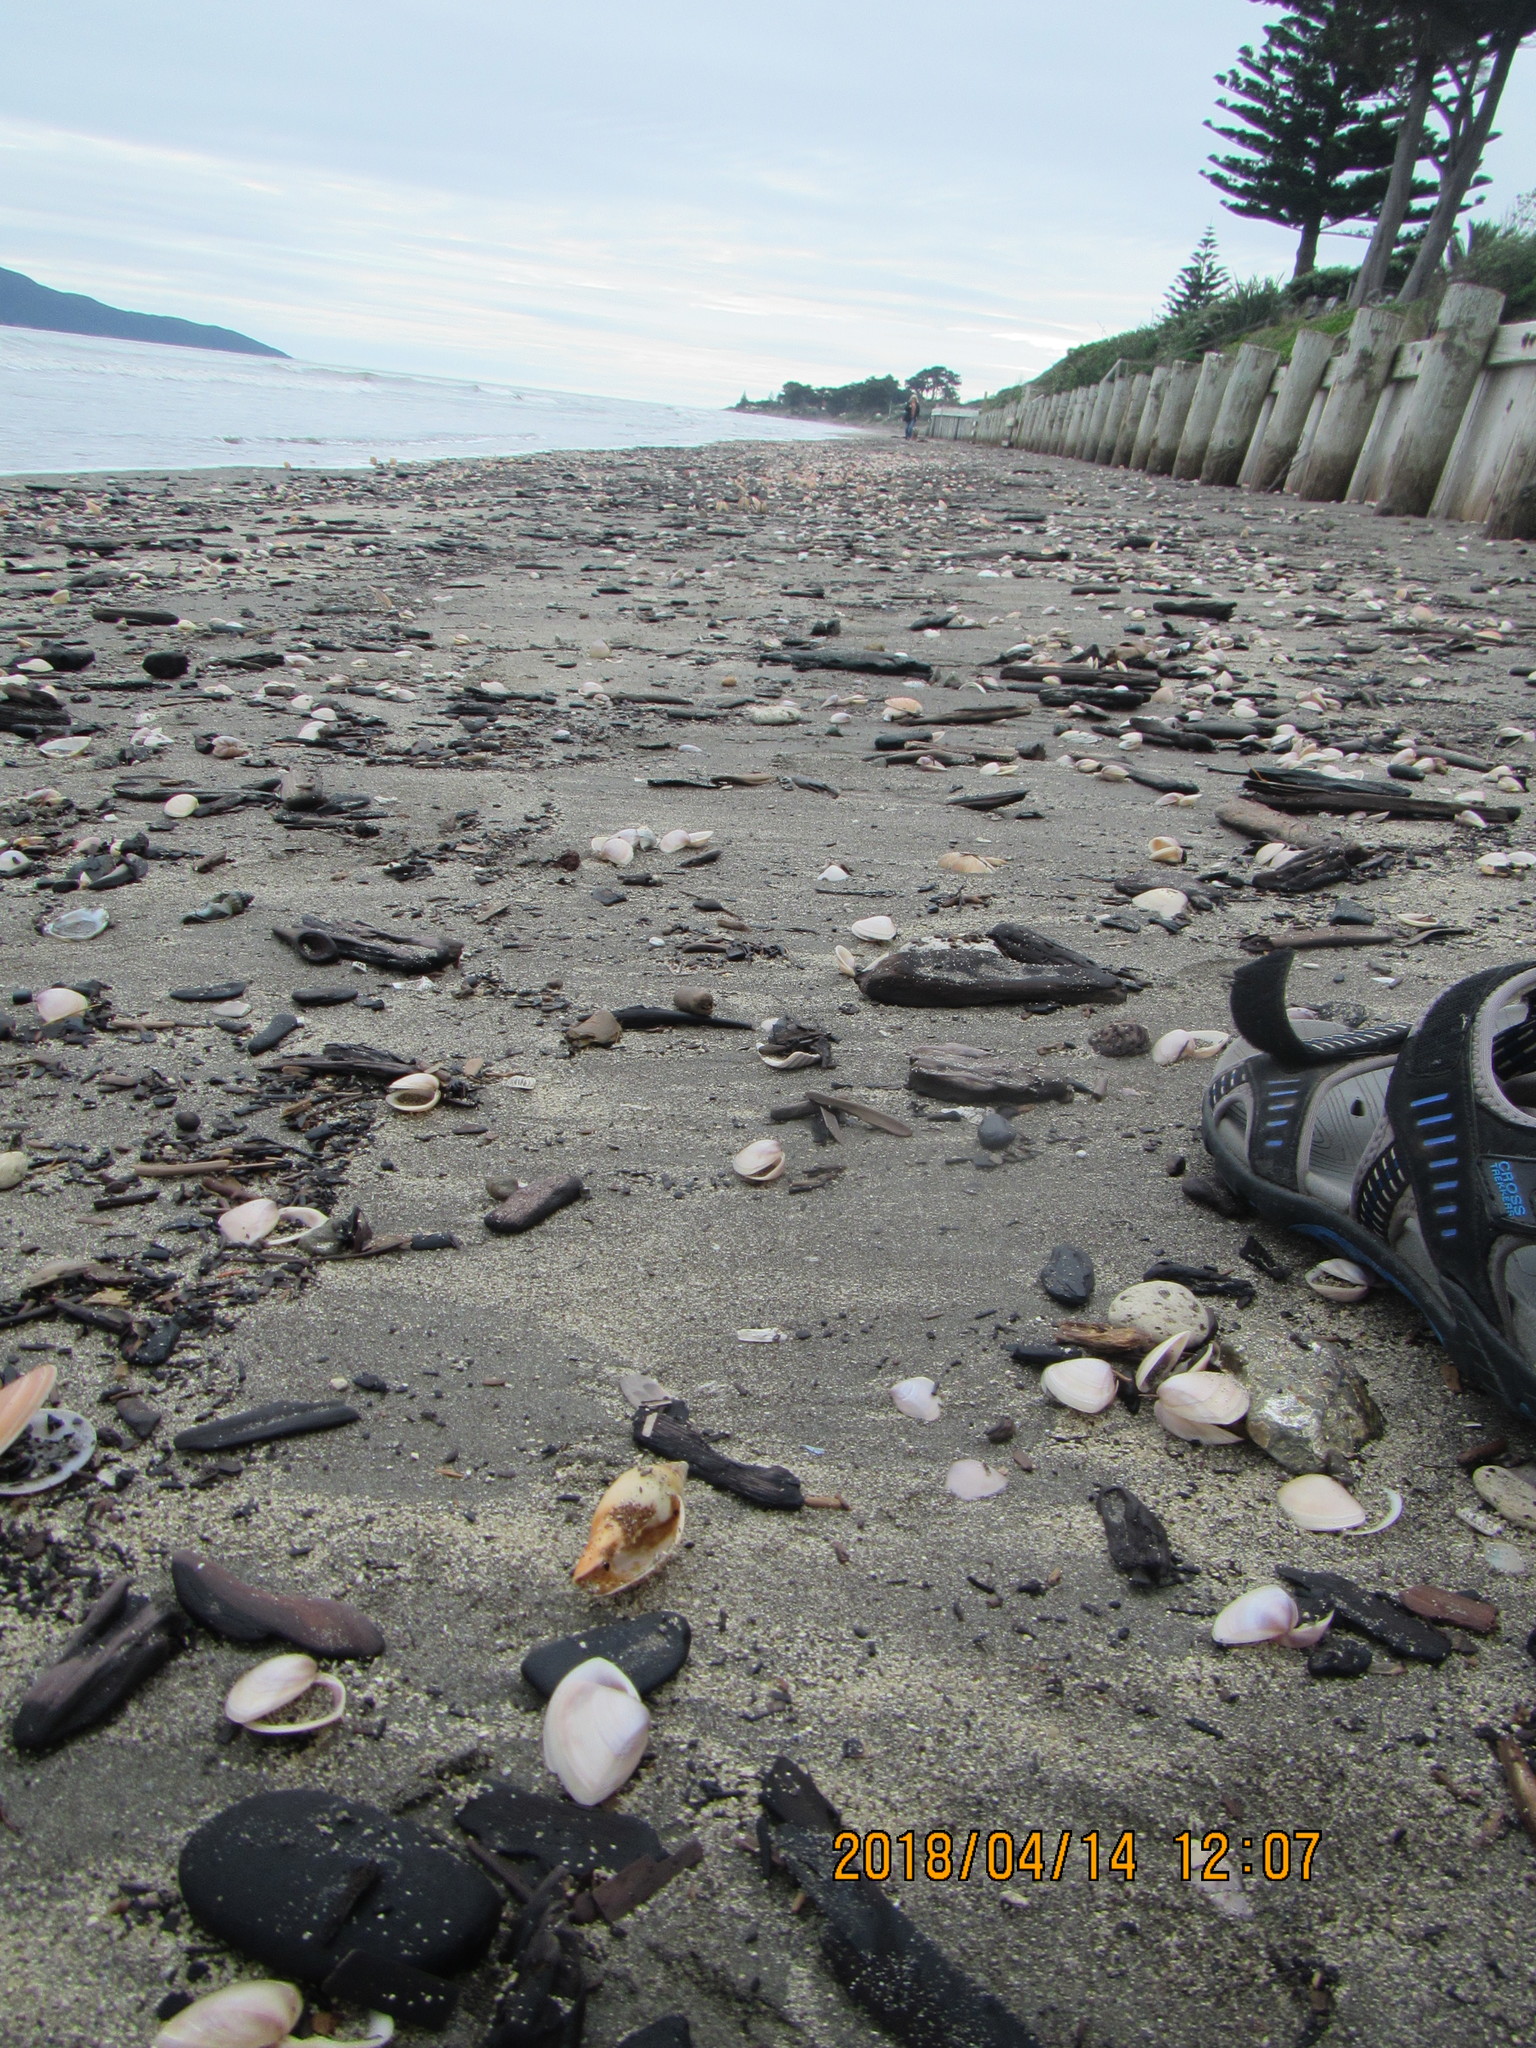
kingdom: Animalia
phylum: Mollusca
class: Gastropoda
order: Neogastropoda
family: Volutidae
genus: Alcithoe
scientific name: Alcithoe fusus
